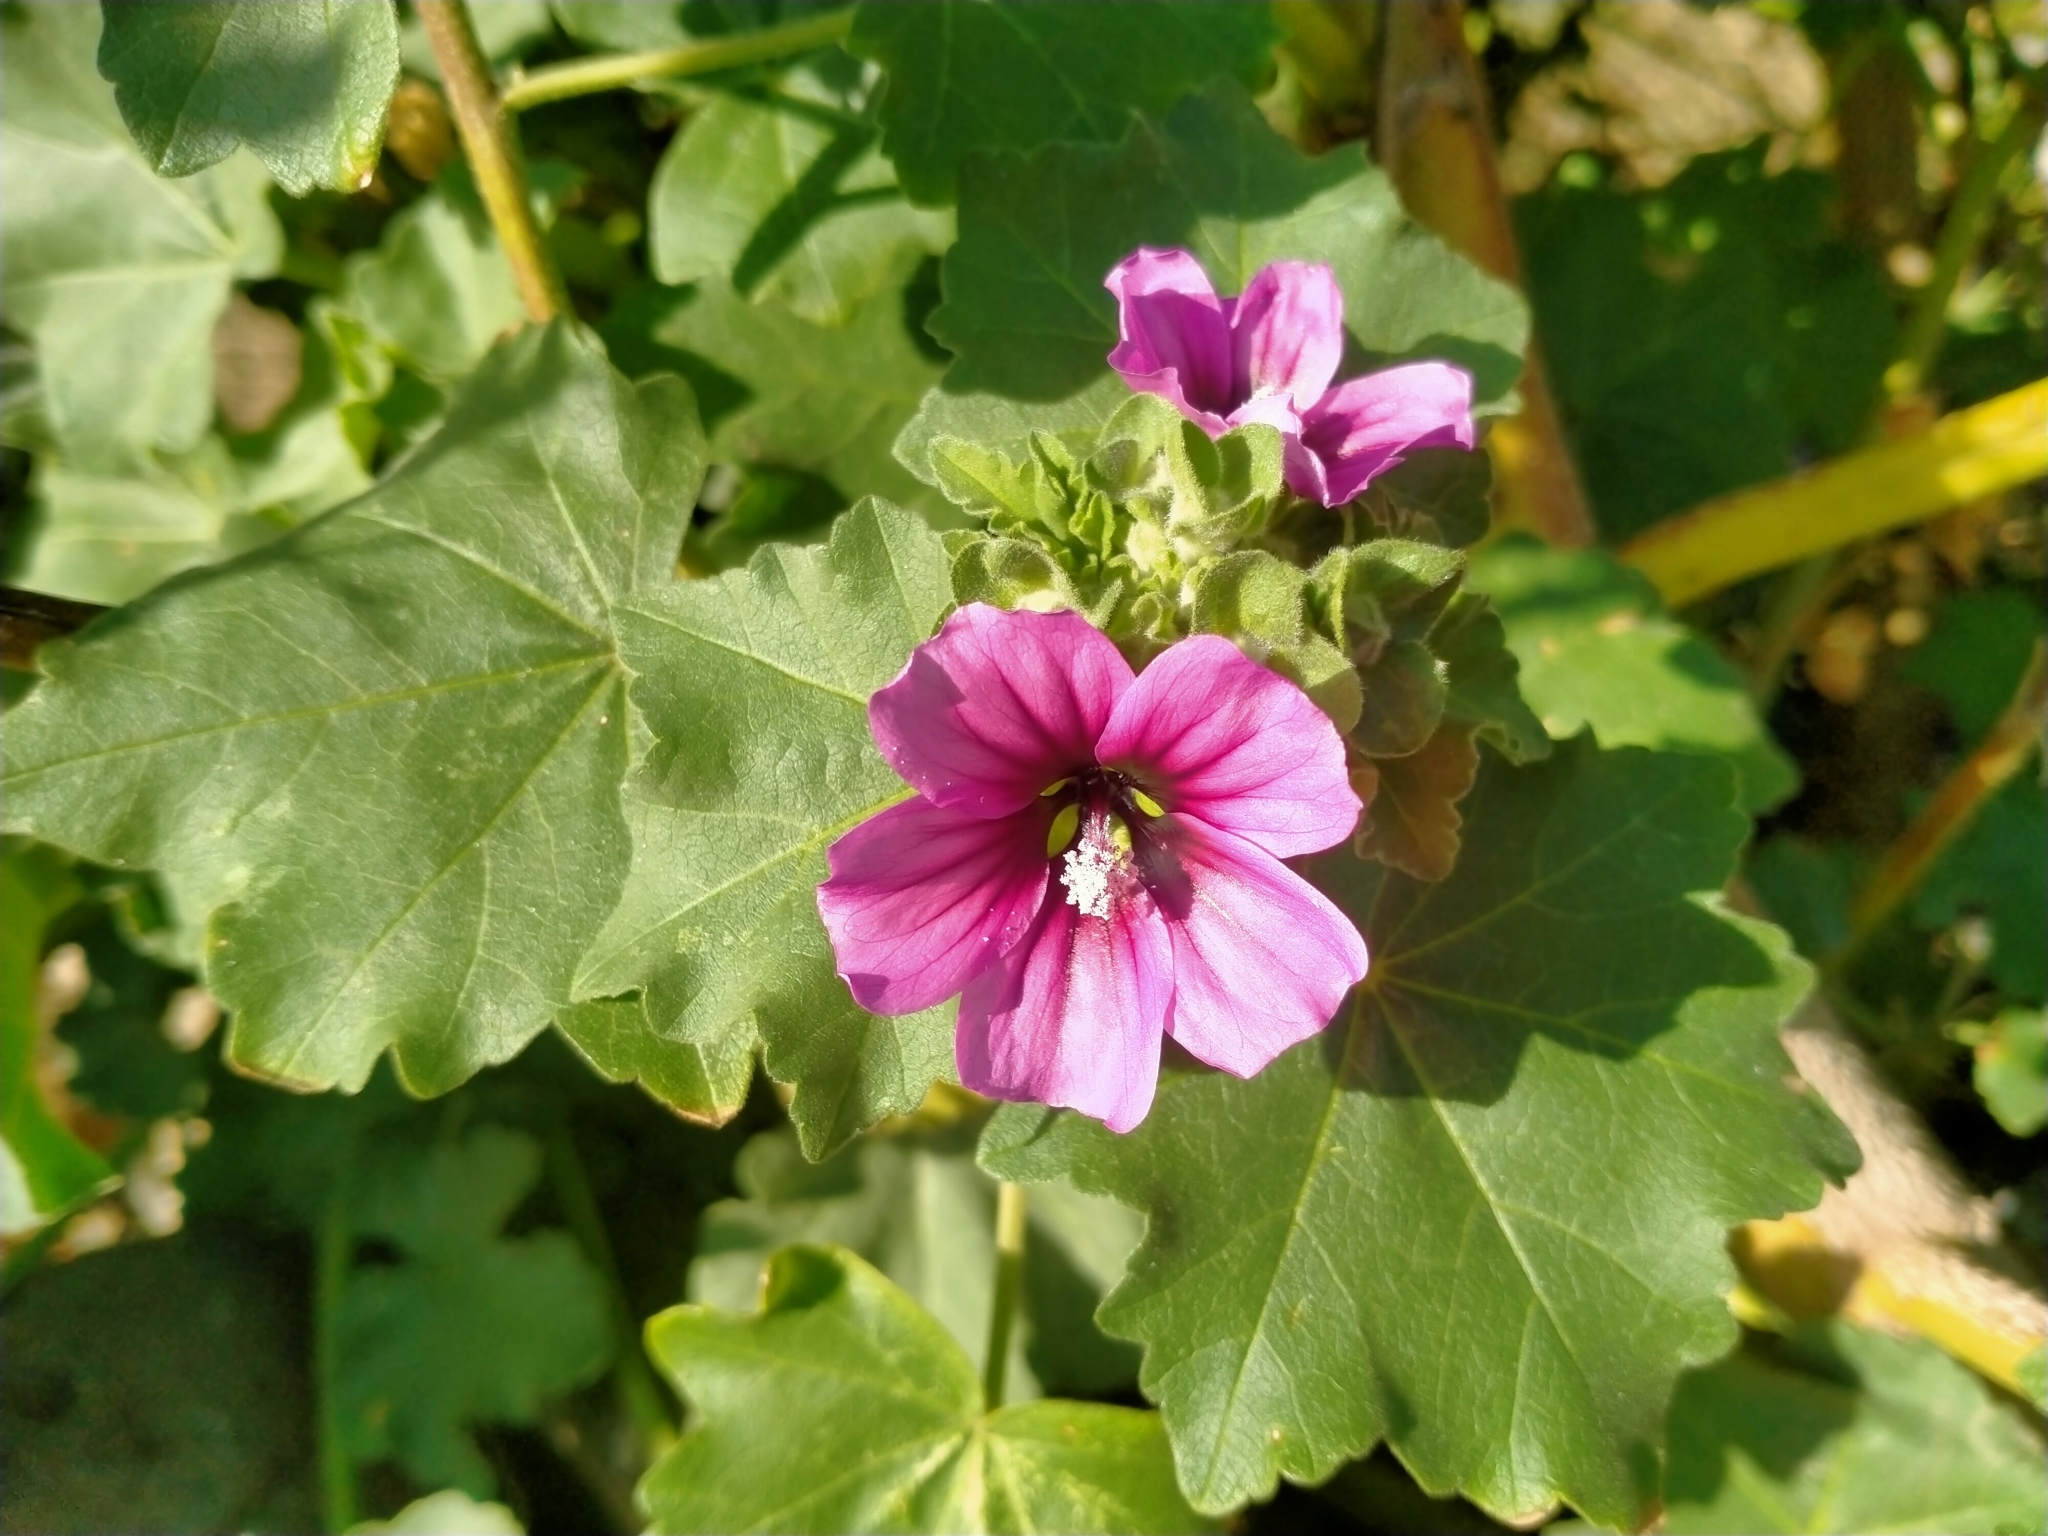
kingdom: Plantae
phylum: Tracheophyta
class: Magnoliopsida
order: Malvales
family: Malvaceae
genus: Malva
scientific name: Malva arborea
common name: Tree mallow
